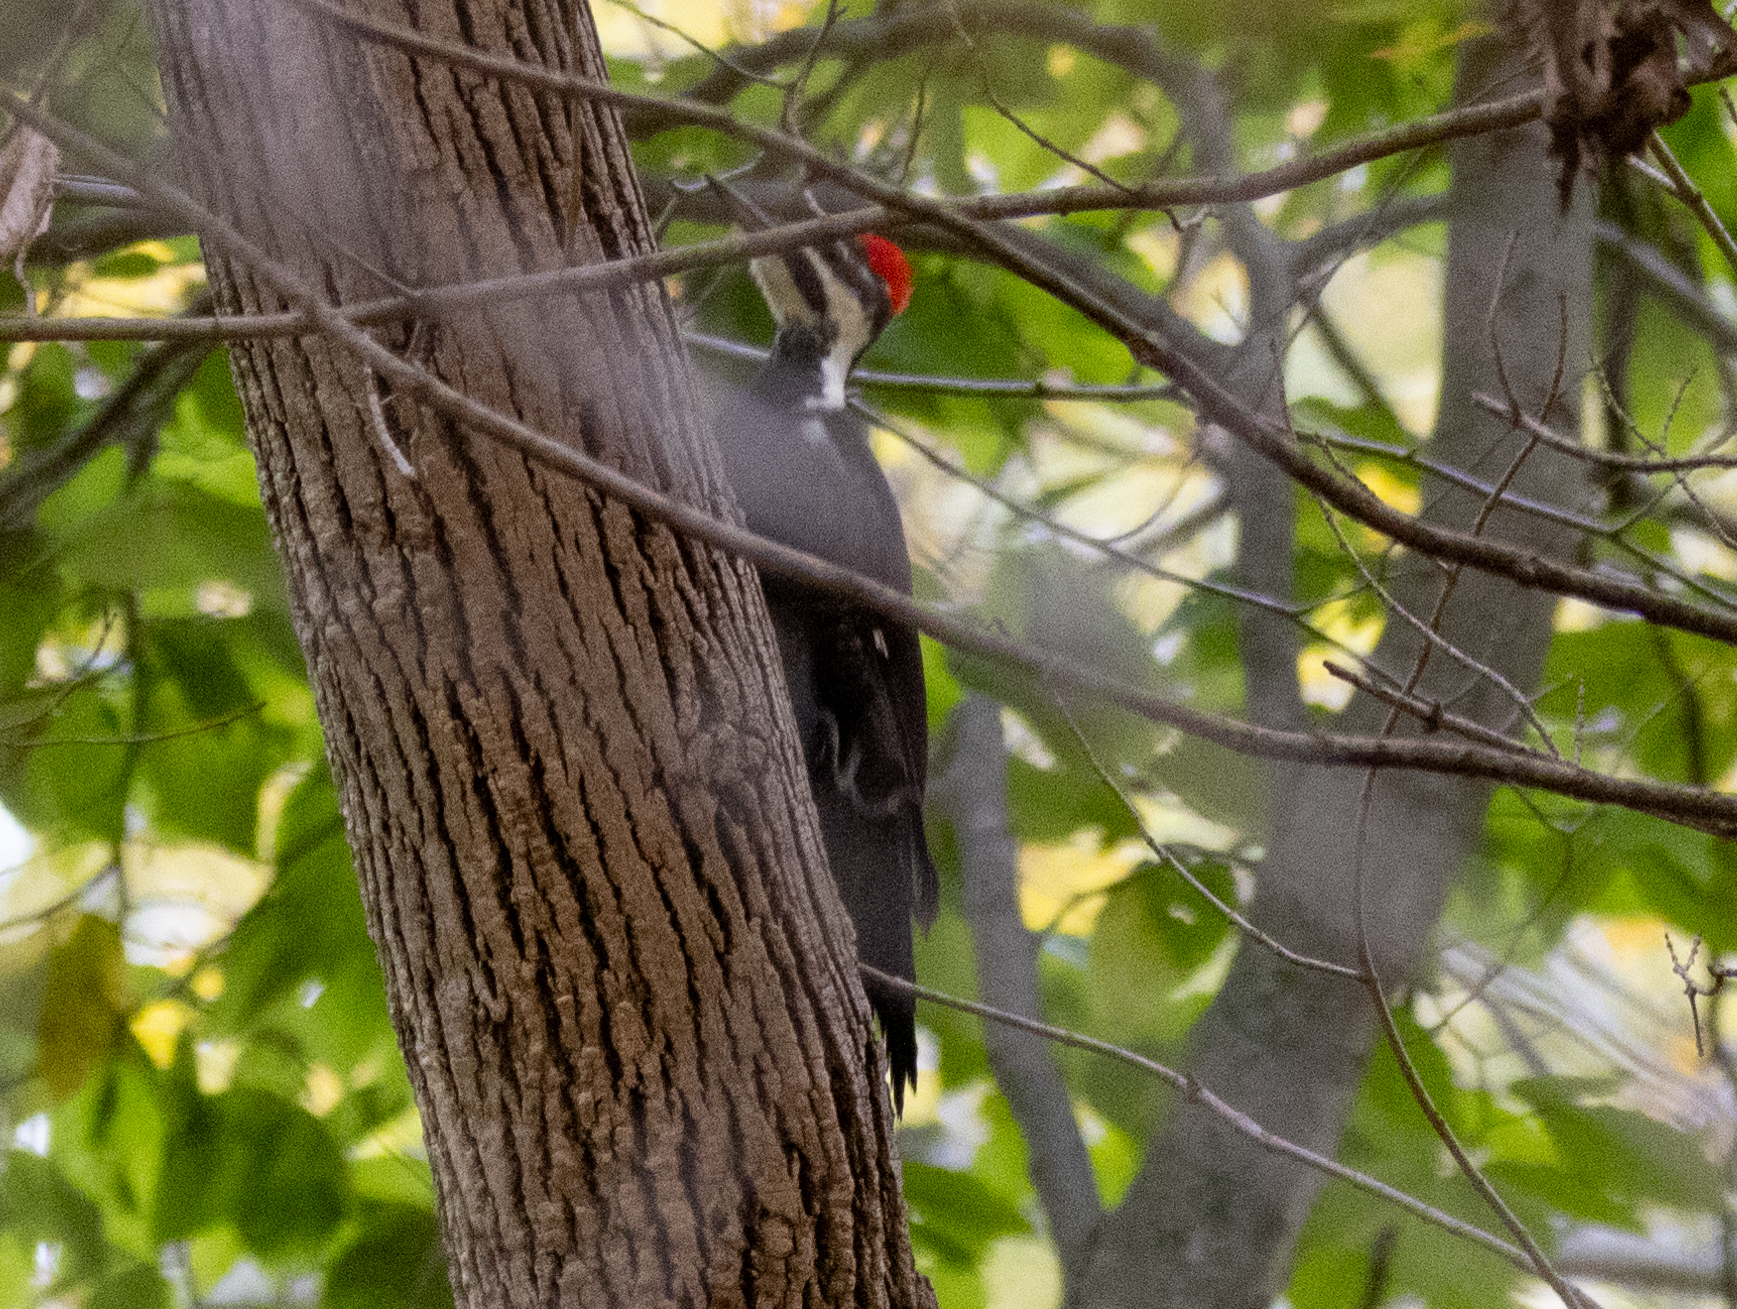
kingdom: Animalia
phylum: Chordata
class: Aves
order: Piciformes
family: Picidae
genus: Dryocopus
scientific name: Dryocopus pileatus
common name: Pileated woodpecker
